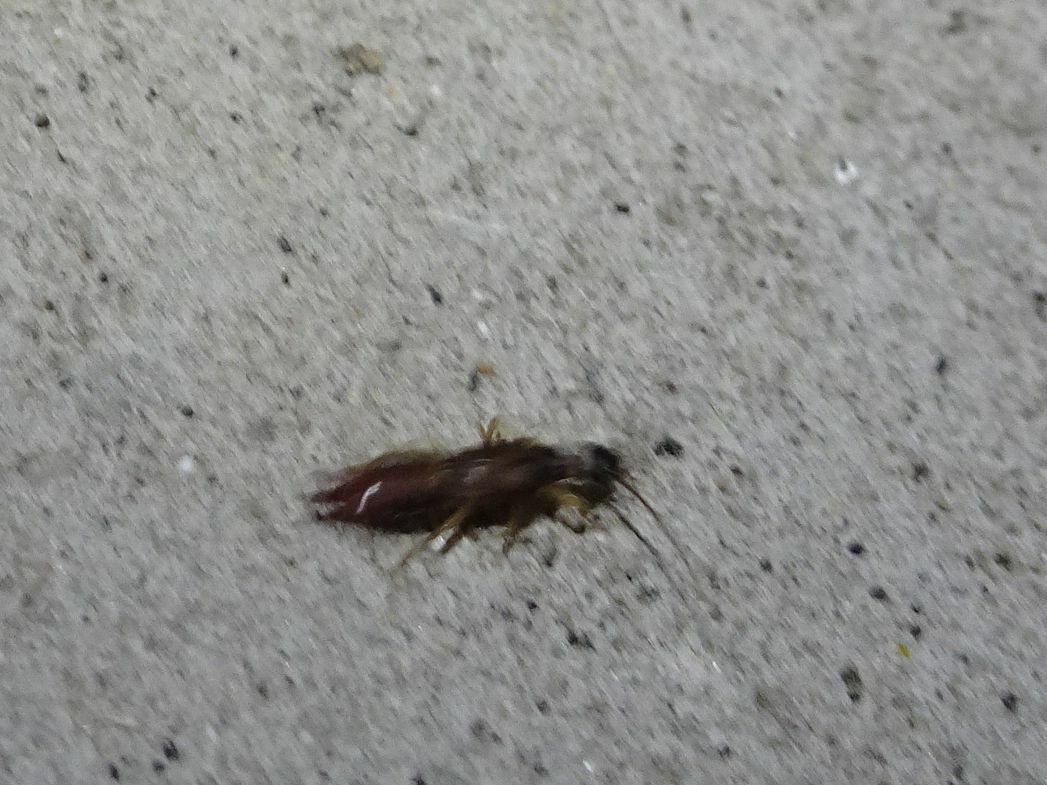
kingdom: Animalia
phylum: Arthropoda
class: Insecta
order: Dermaptera
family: Spongiphoridae
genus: Labia
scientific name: Labia minor
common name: Lesser earwig
